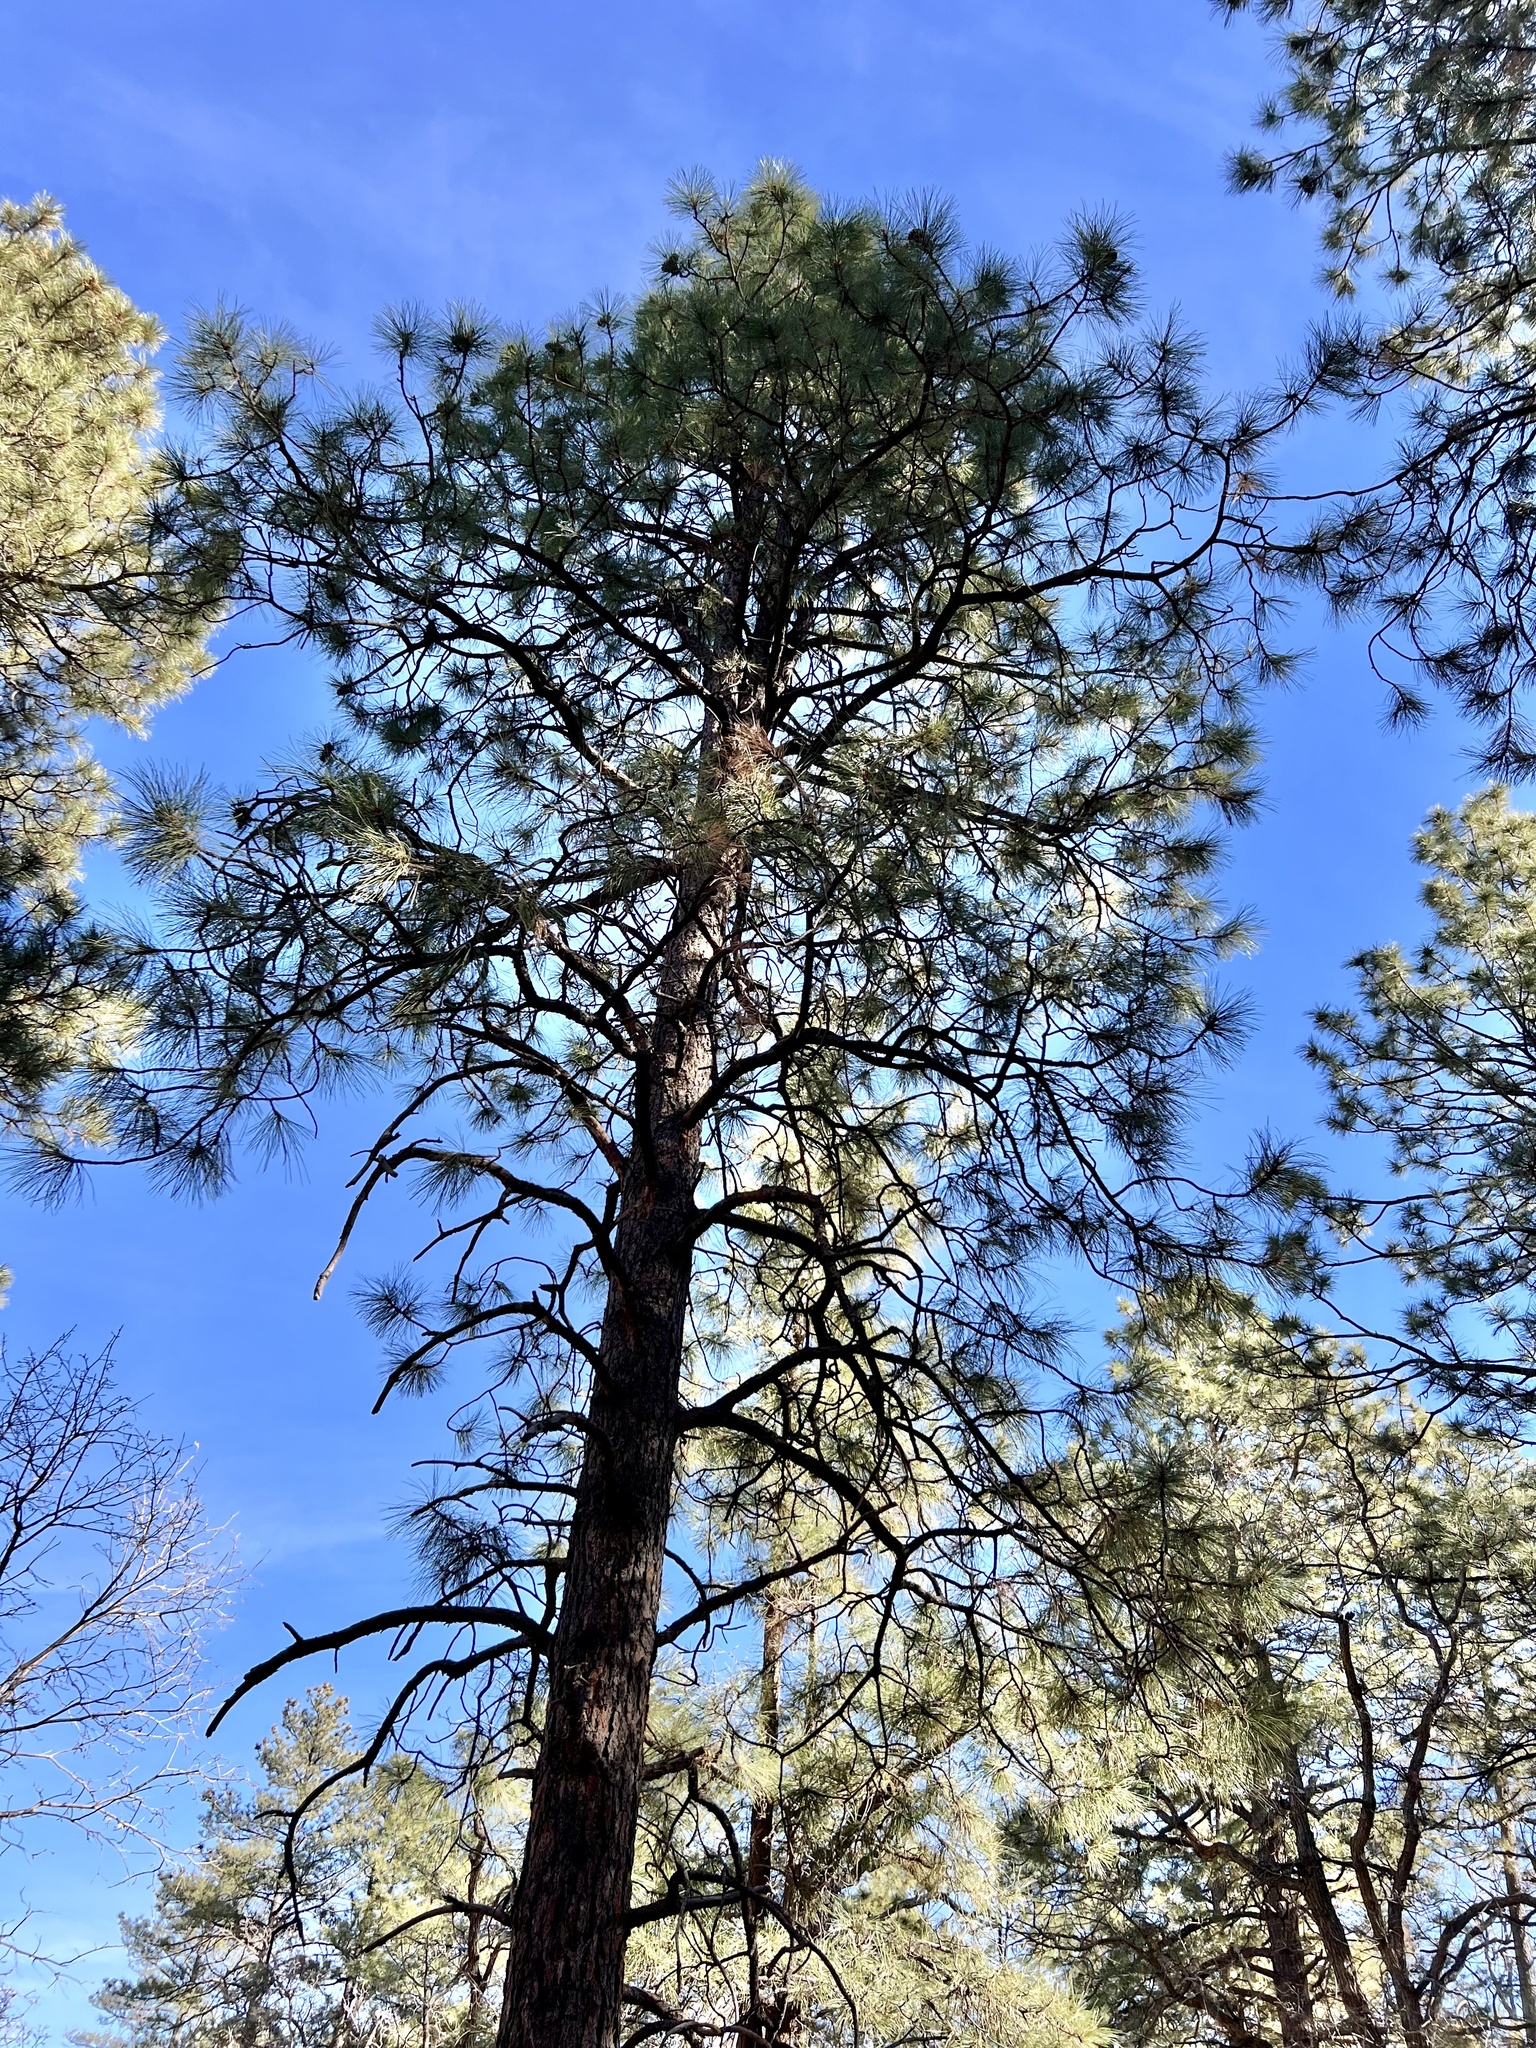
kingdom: Plantae
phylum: Tracheophyta
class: Pinopsida
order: Pinales
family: Pinaceae
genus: Pinus
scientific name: Pinus ponderosa
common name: Western yellow-pine
